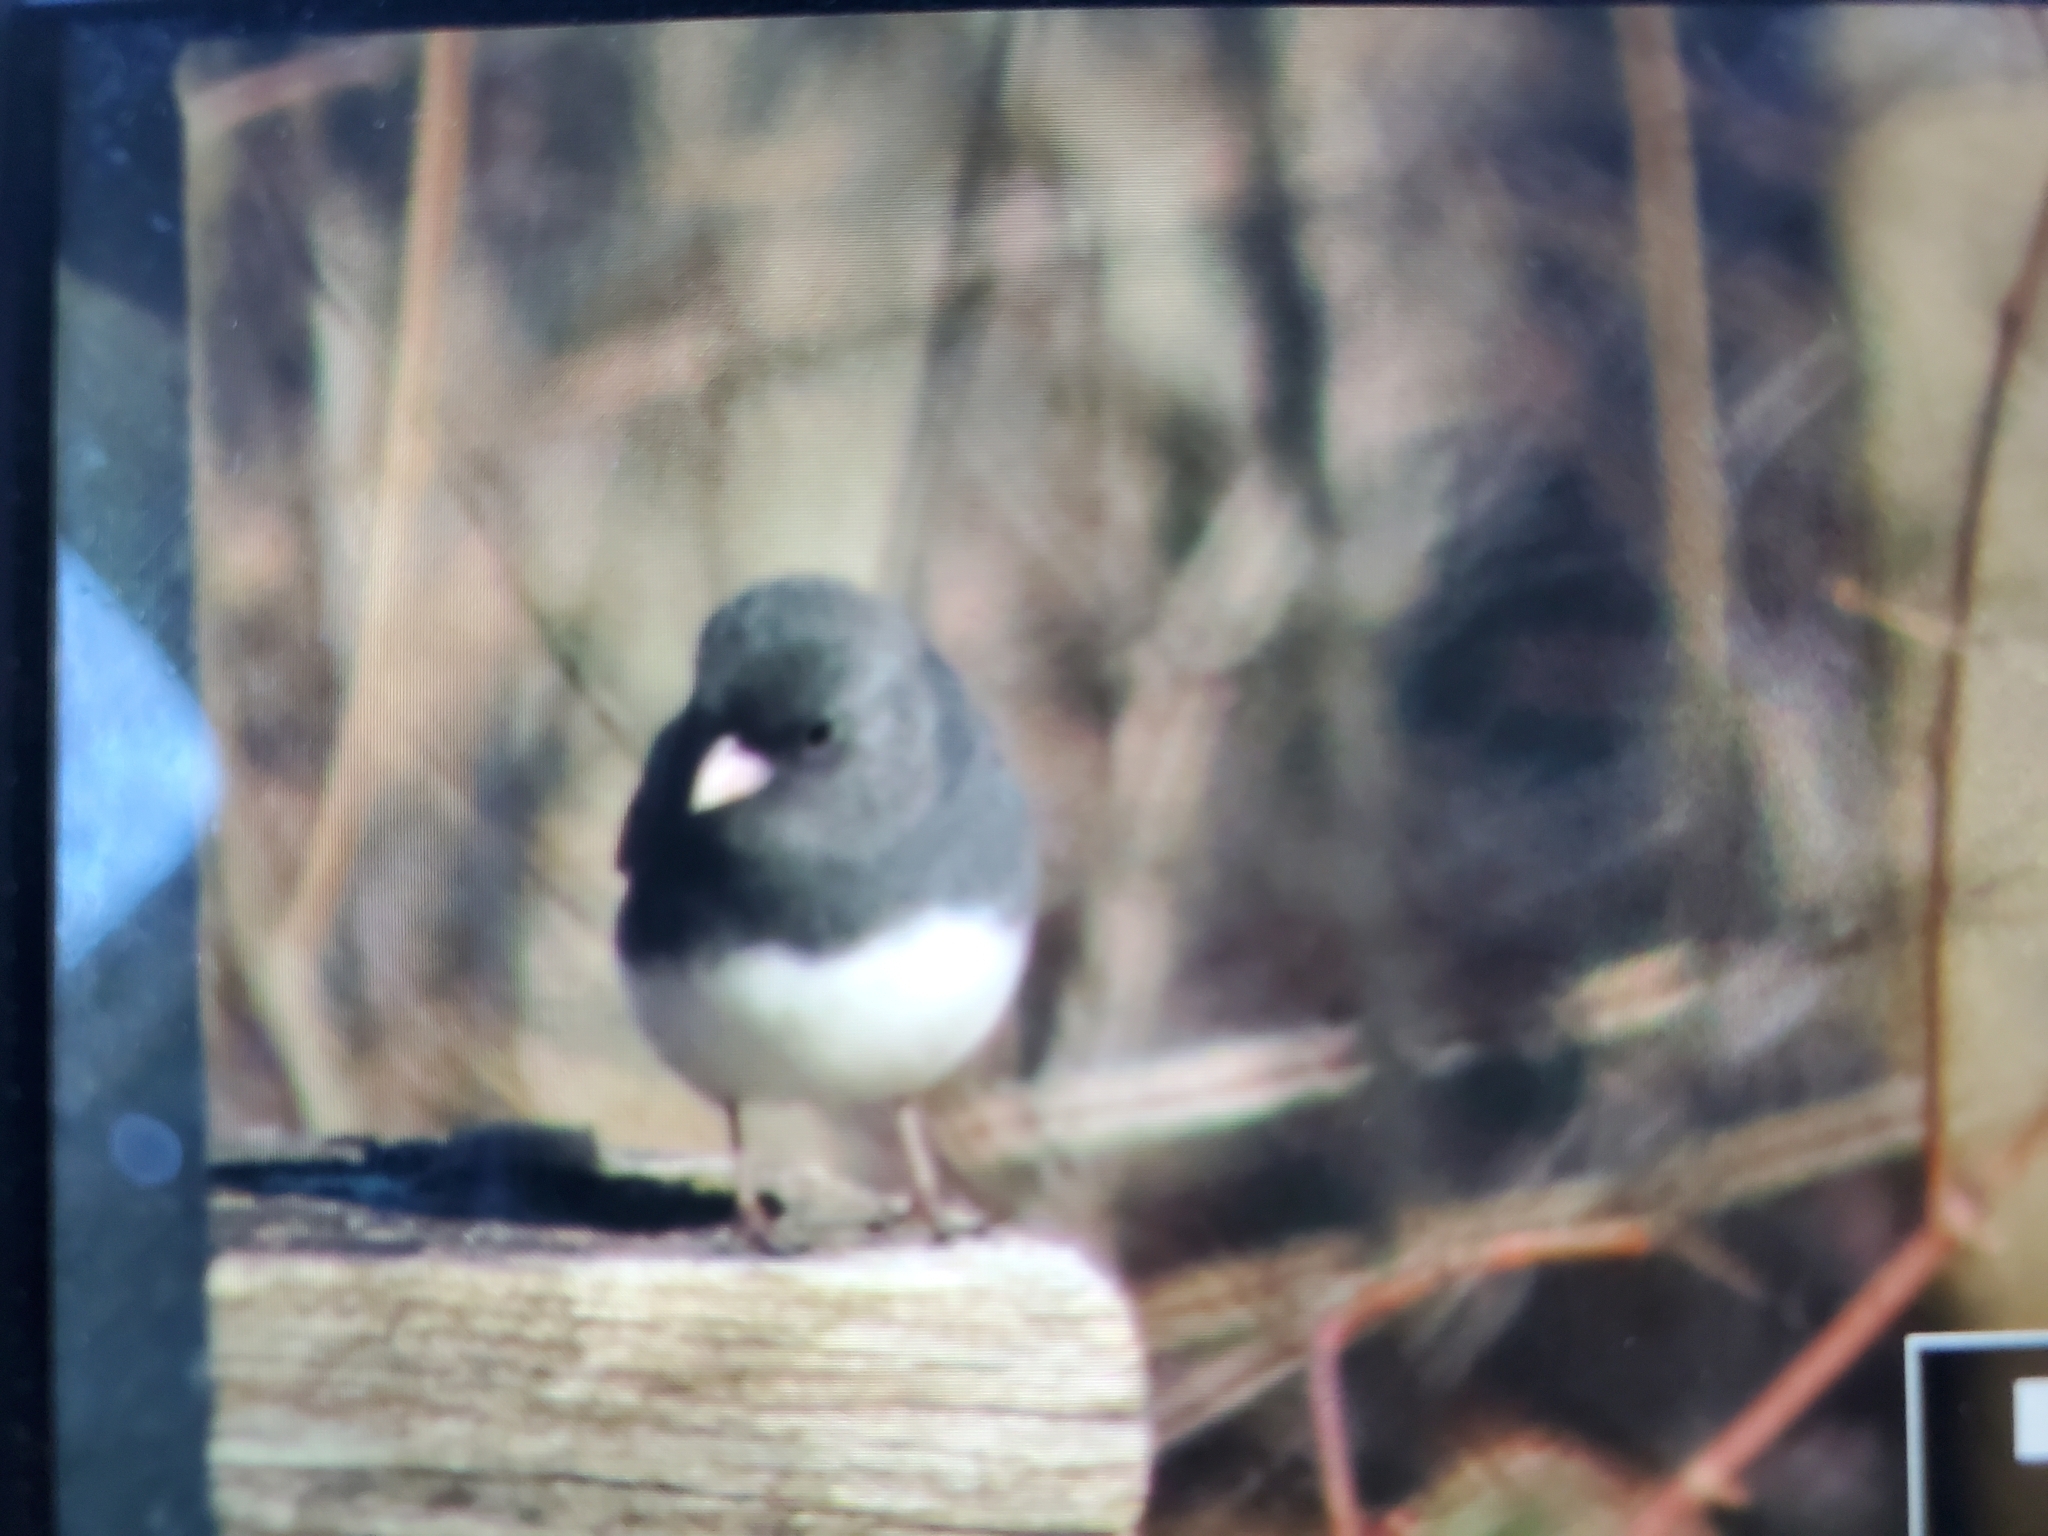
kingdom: Animalia
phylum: Chordata
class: Aves
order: Passeriformes
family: Passerellidae
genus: Junco
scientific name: Junco hyemalis
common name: Dark-eyed junco
